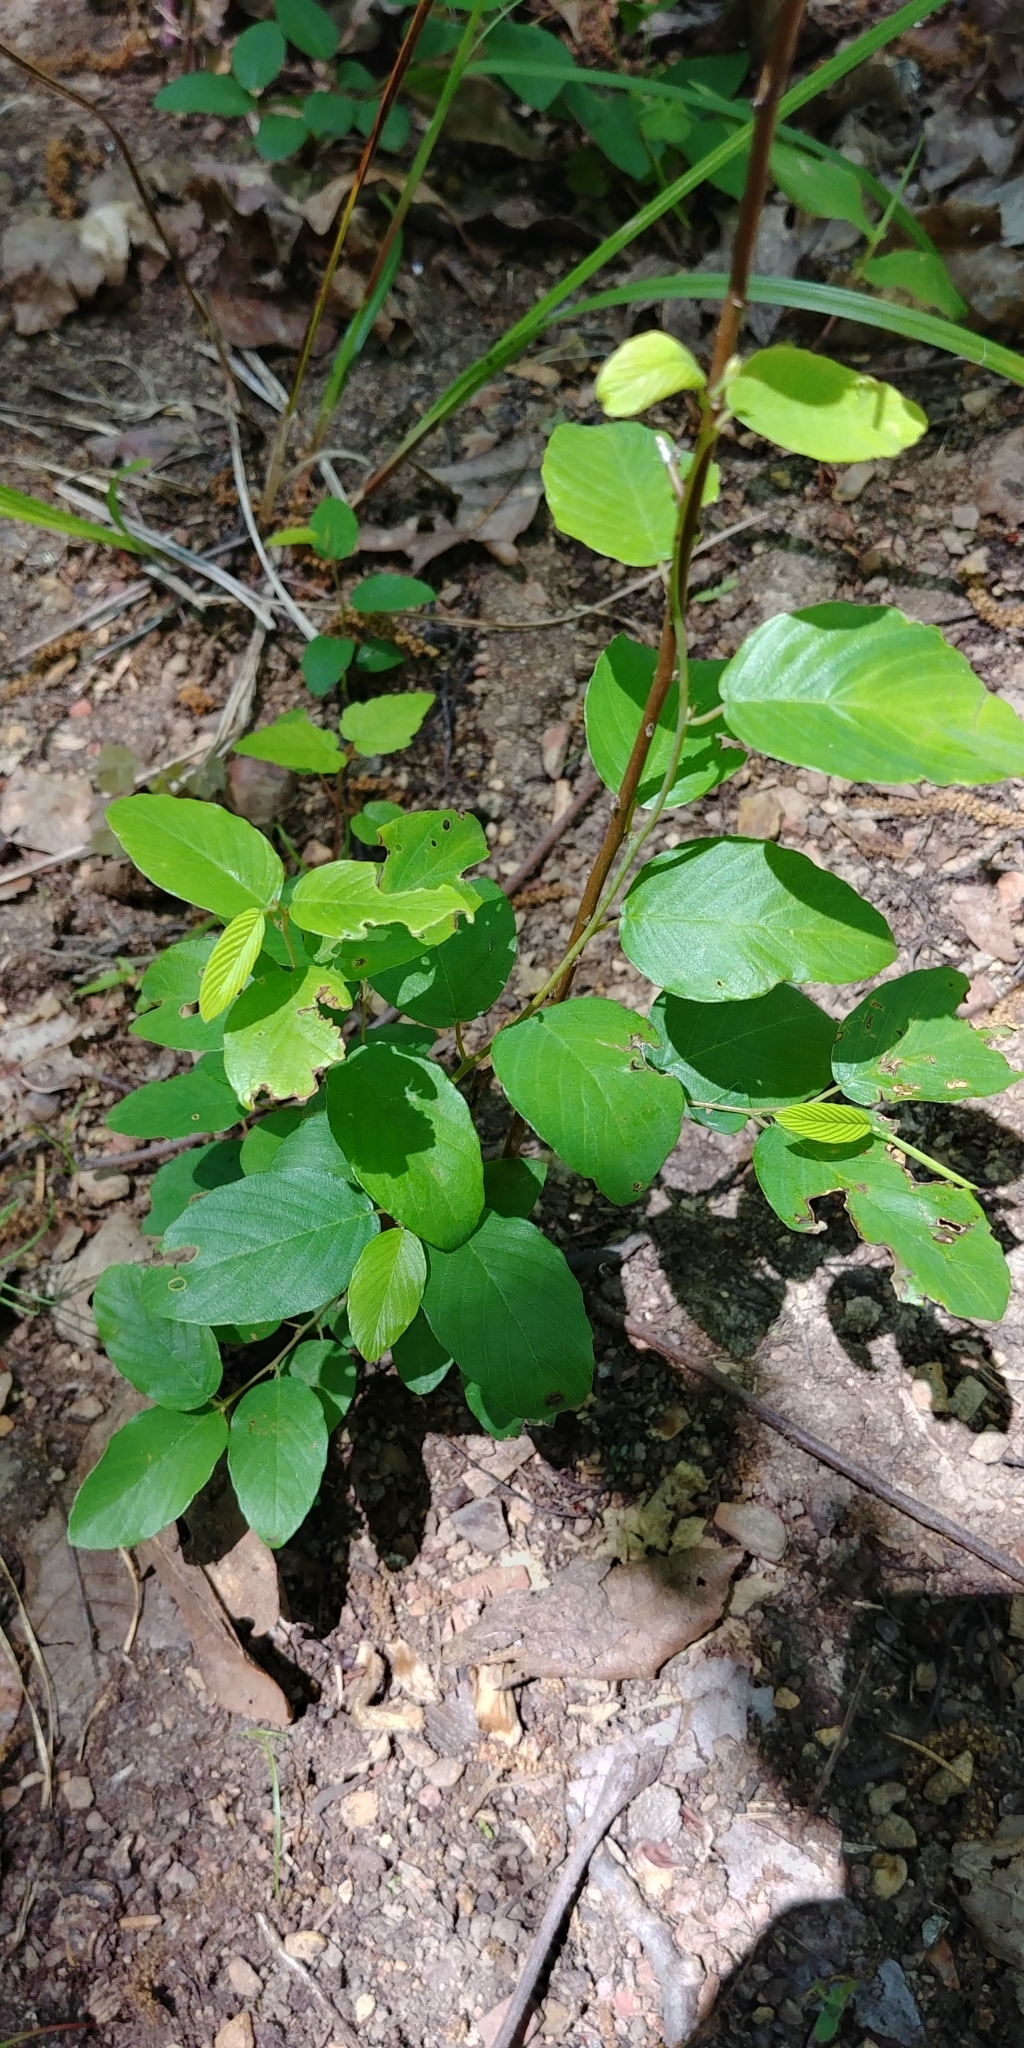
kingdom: Plantae
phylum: Tracheophyta
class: Magnoliopsida
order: Rosales
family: Rhamnaceae
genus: Berchemia
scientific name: Berchemia scandens
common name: Supplejack
